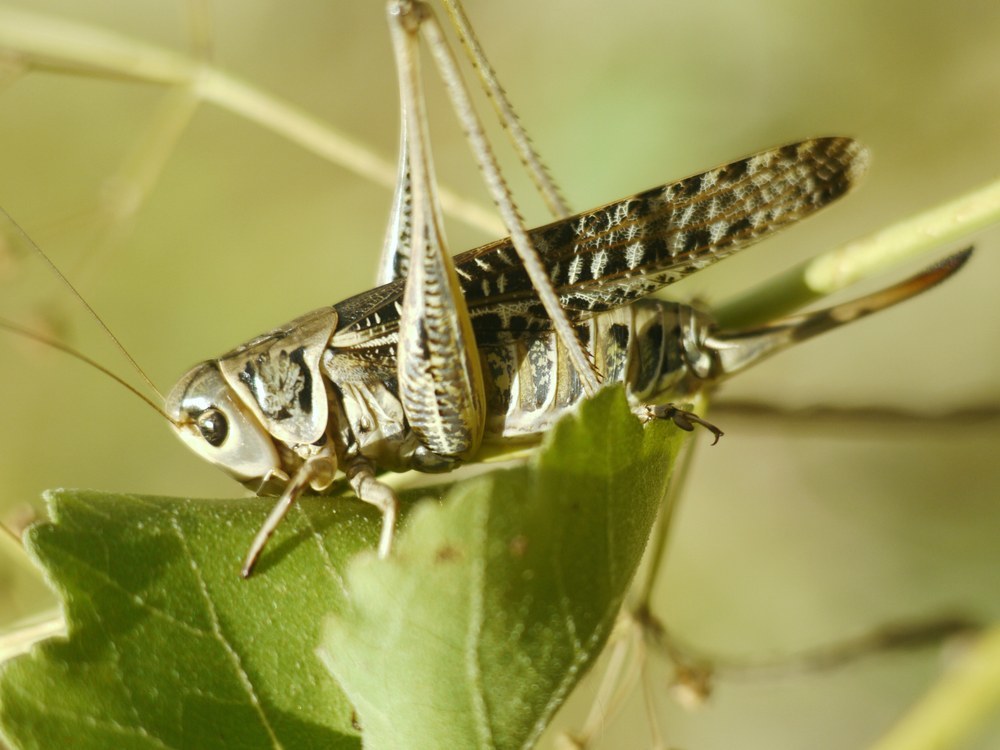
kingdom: Animalia
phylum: Arthropoda
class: Insecta
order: Orthoptera
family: Tettigoniidae
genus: Decticus
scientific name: Decticus albifrons
